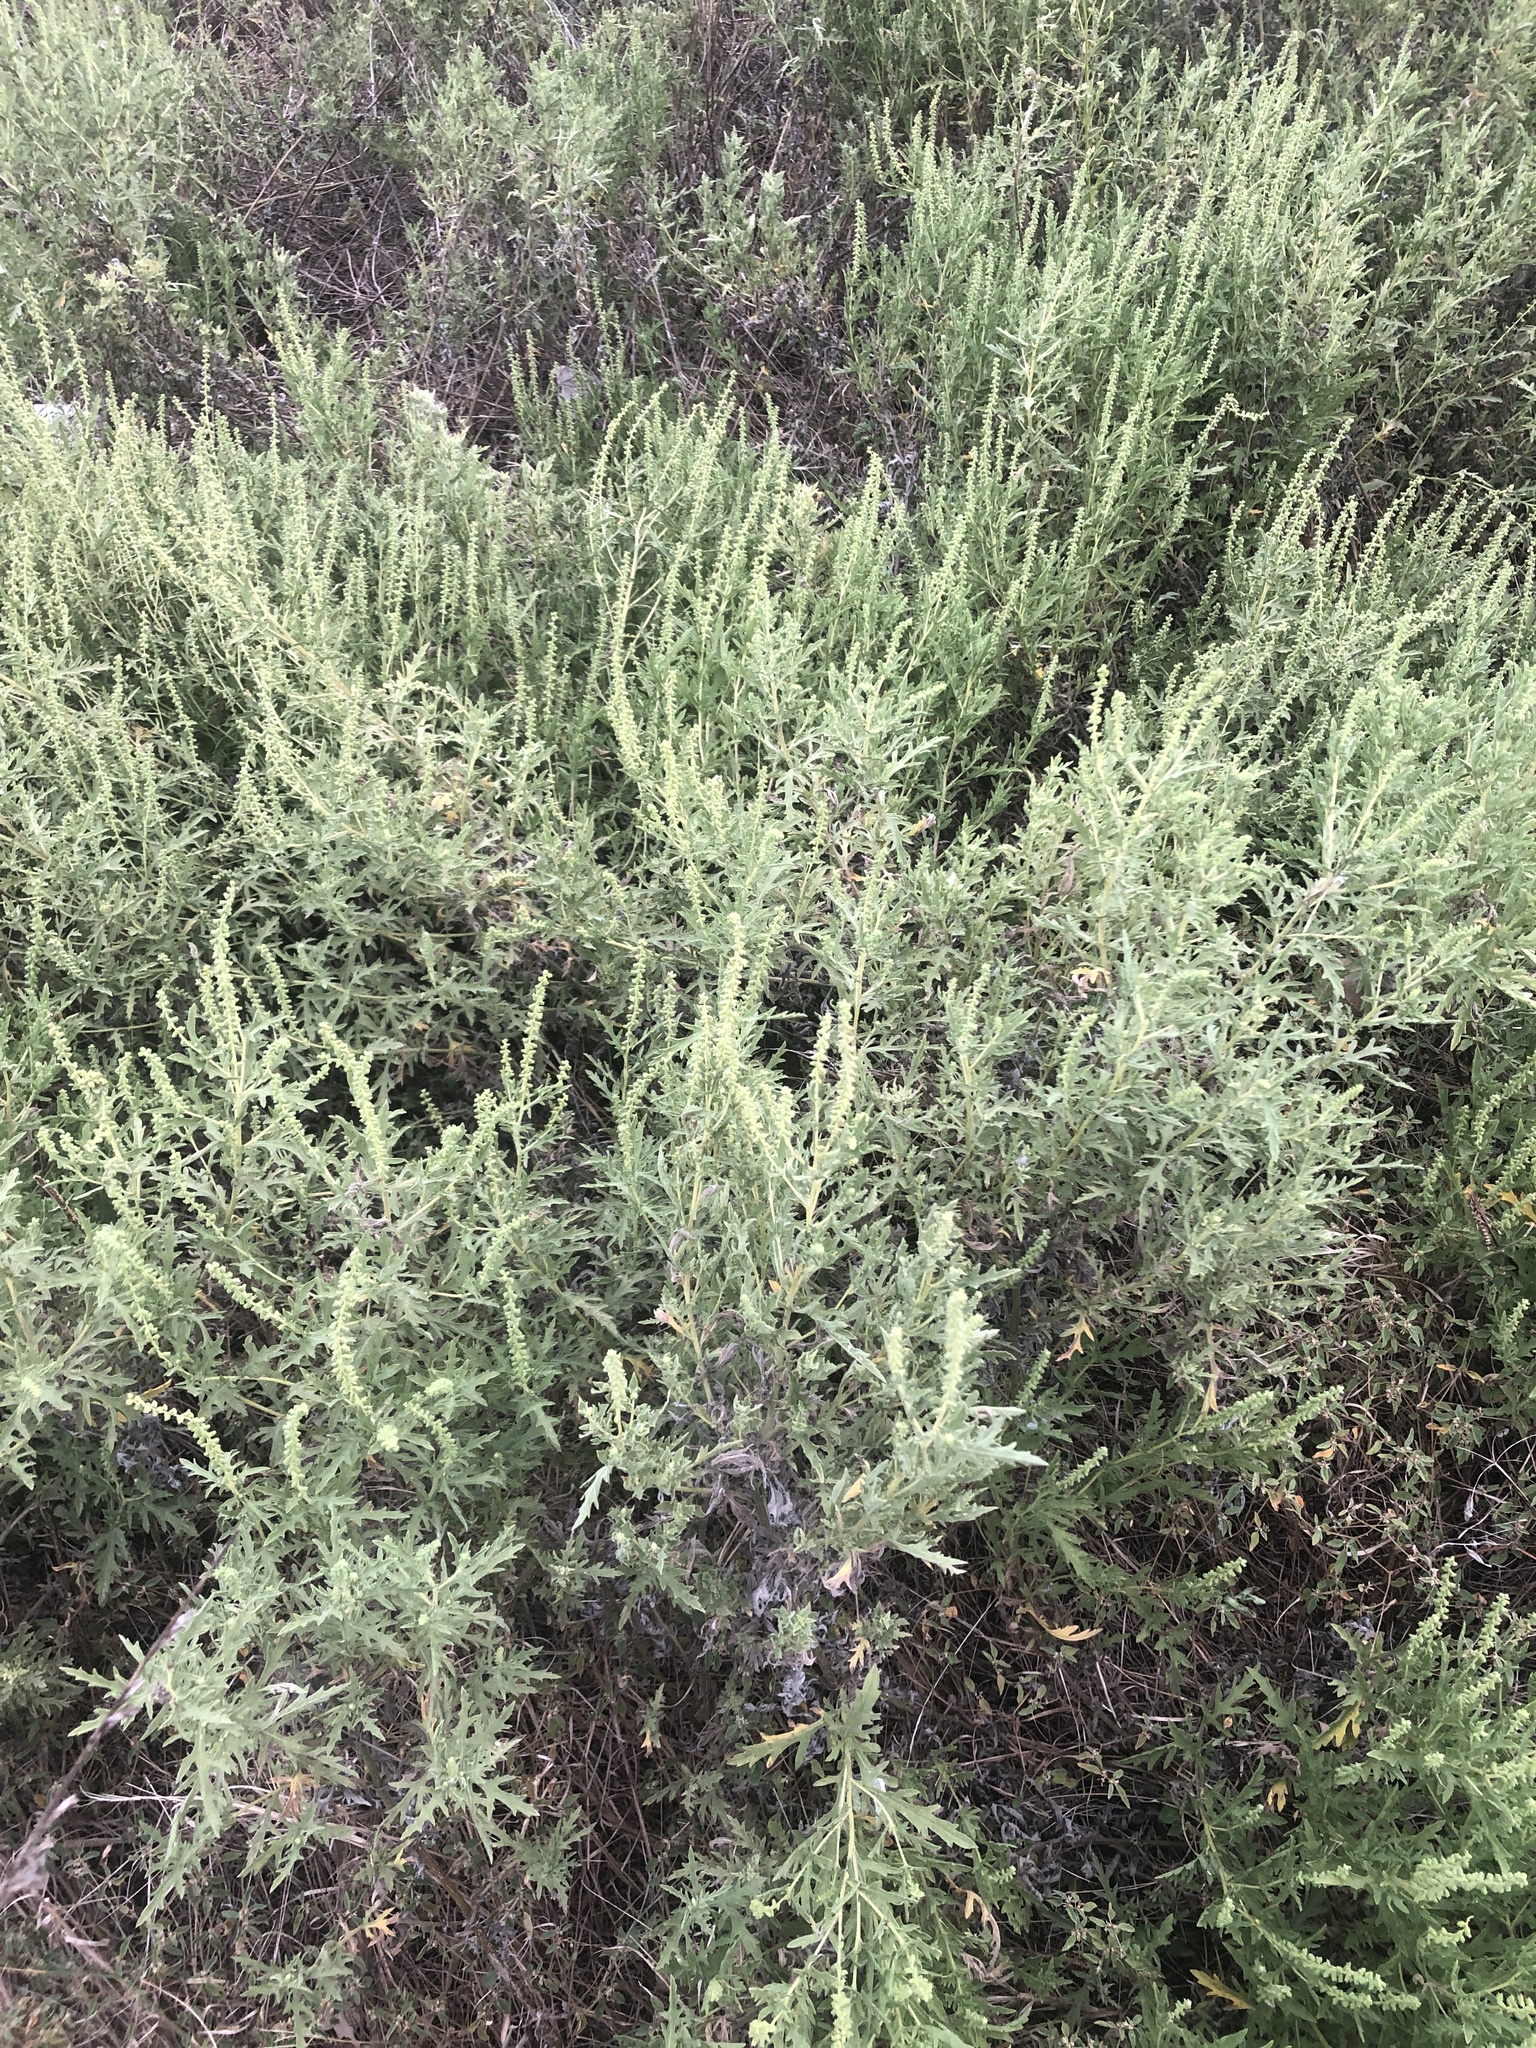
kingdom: Plantae
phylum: Tracheophyta
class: Magnoliopsida
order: Asterales
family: Asteraceae
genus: Ambrosia
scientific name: Ambrosia psilostachya
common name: Perennial ragweed
